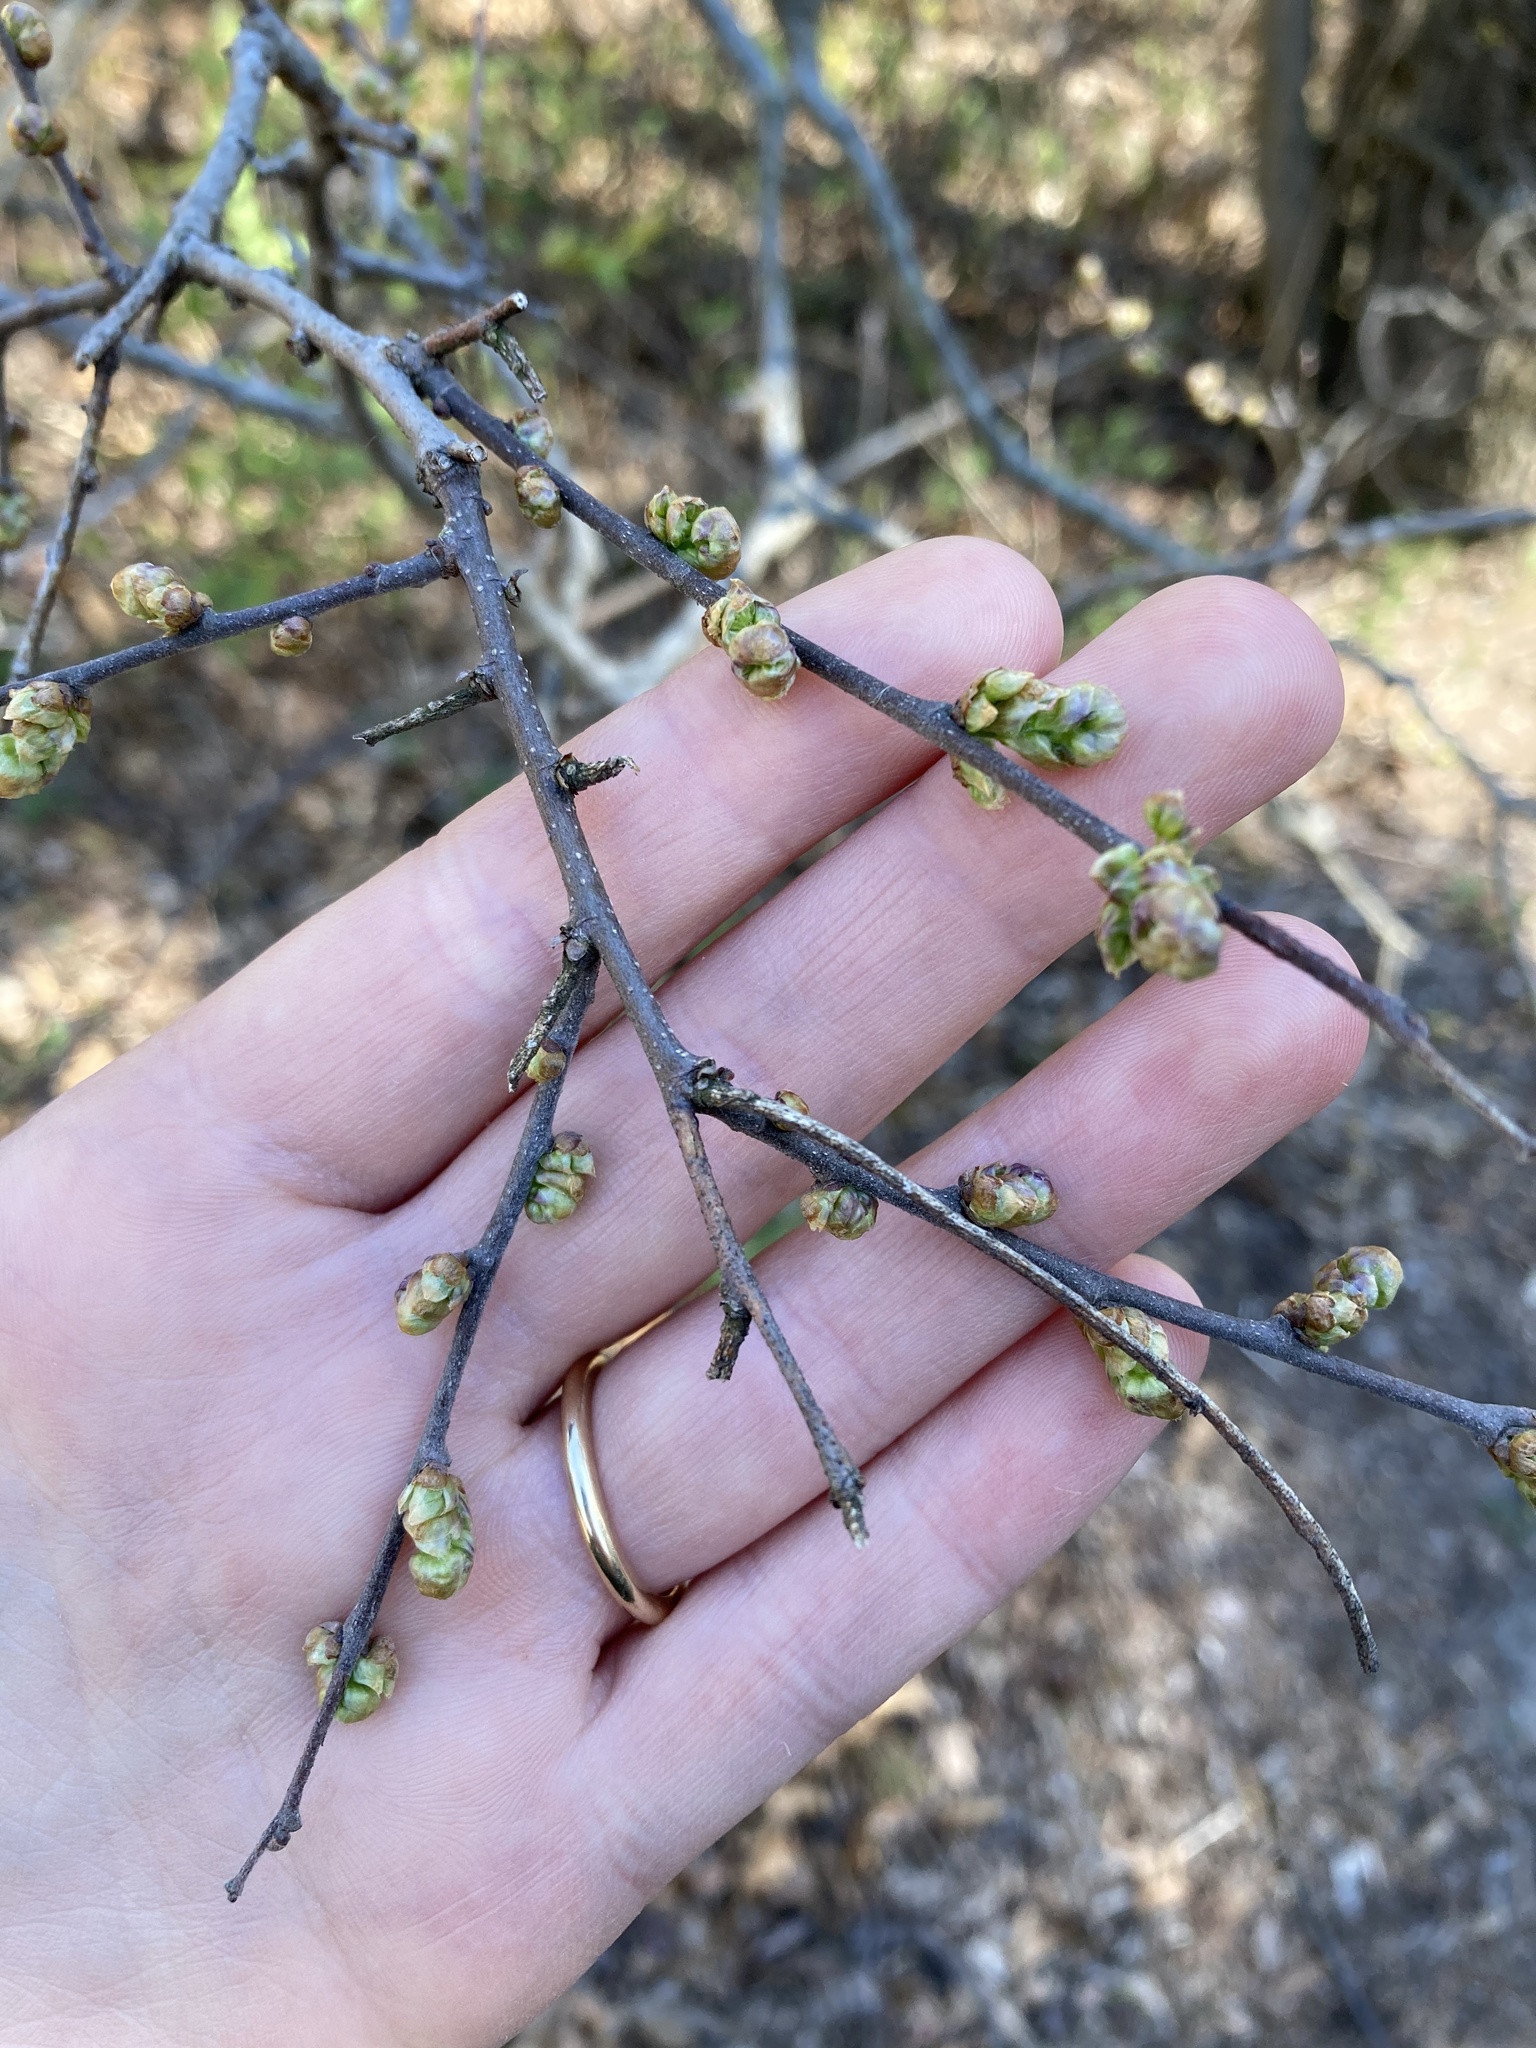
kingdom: Plantae
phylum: Tracheophyta
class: Magnoliopsida
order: Rosales
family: Cannabaceae
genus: Celtis
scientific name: Celtis tenuifolia
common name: Georgia hackberry
